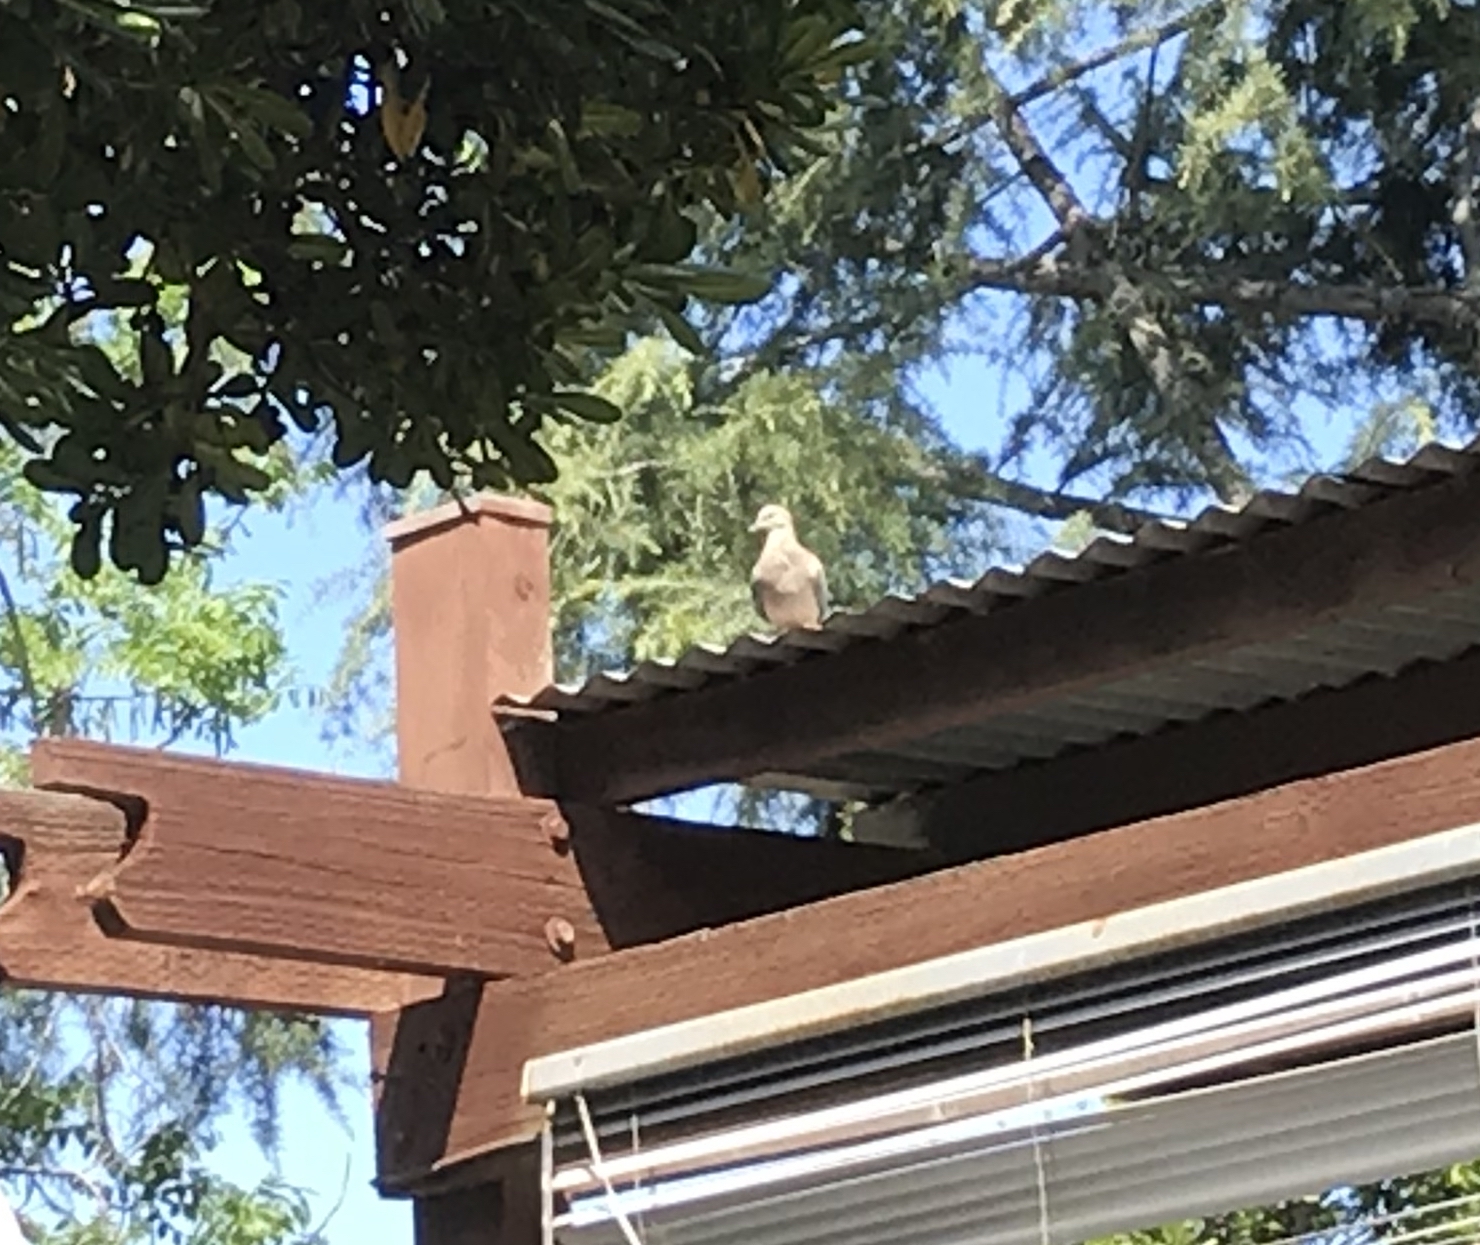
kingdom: Animalia
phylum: Chordata
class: Aves
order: Columbiformes
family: Columbidae
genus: Zenaida
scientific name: Zenaida macroura
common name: Mourning dove
